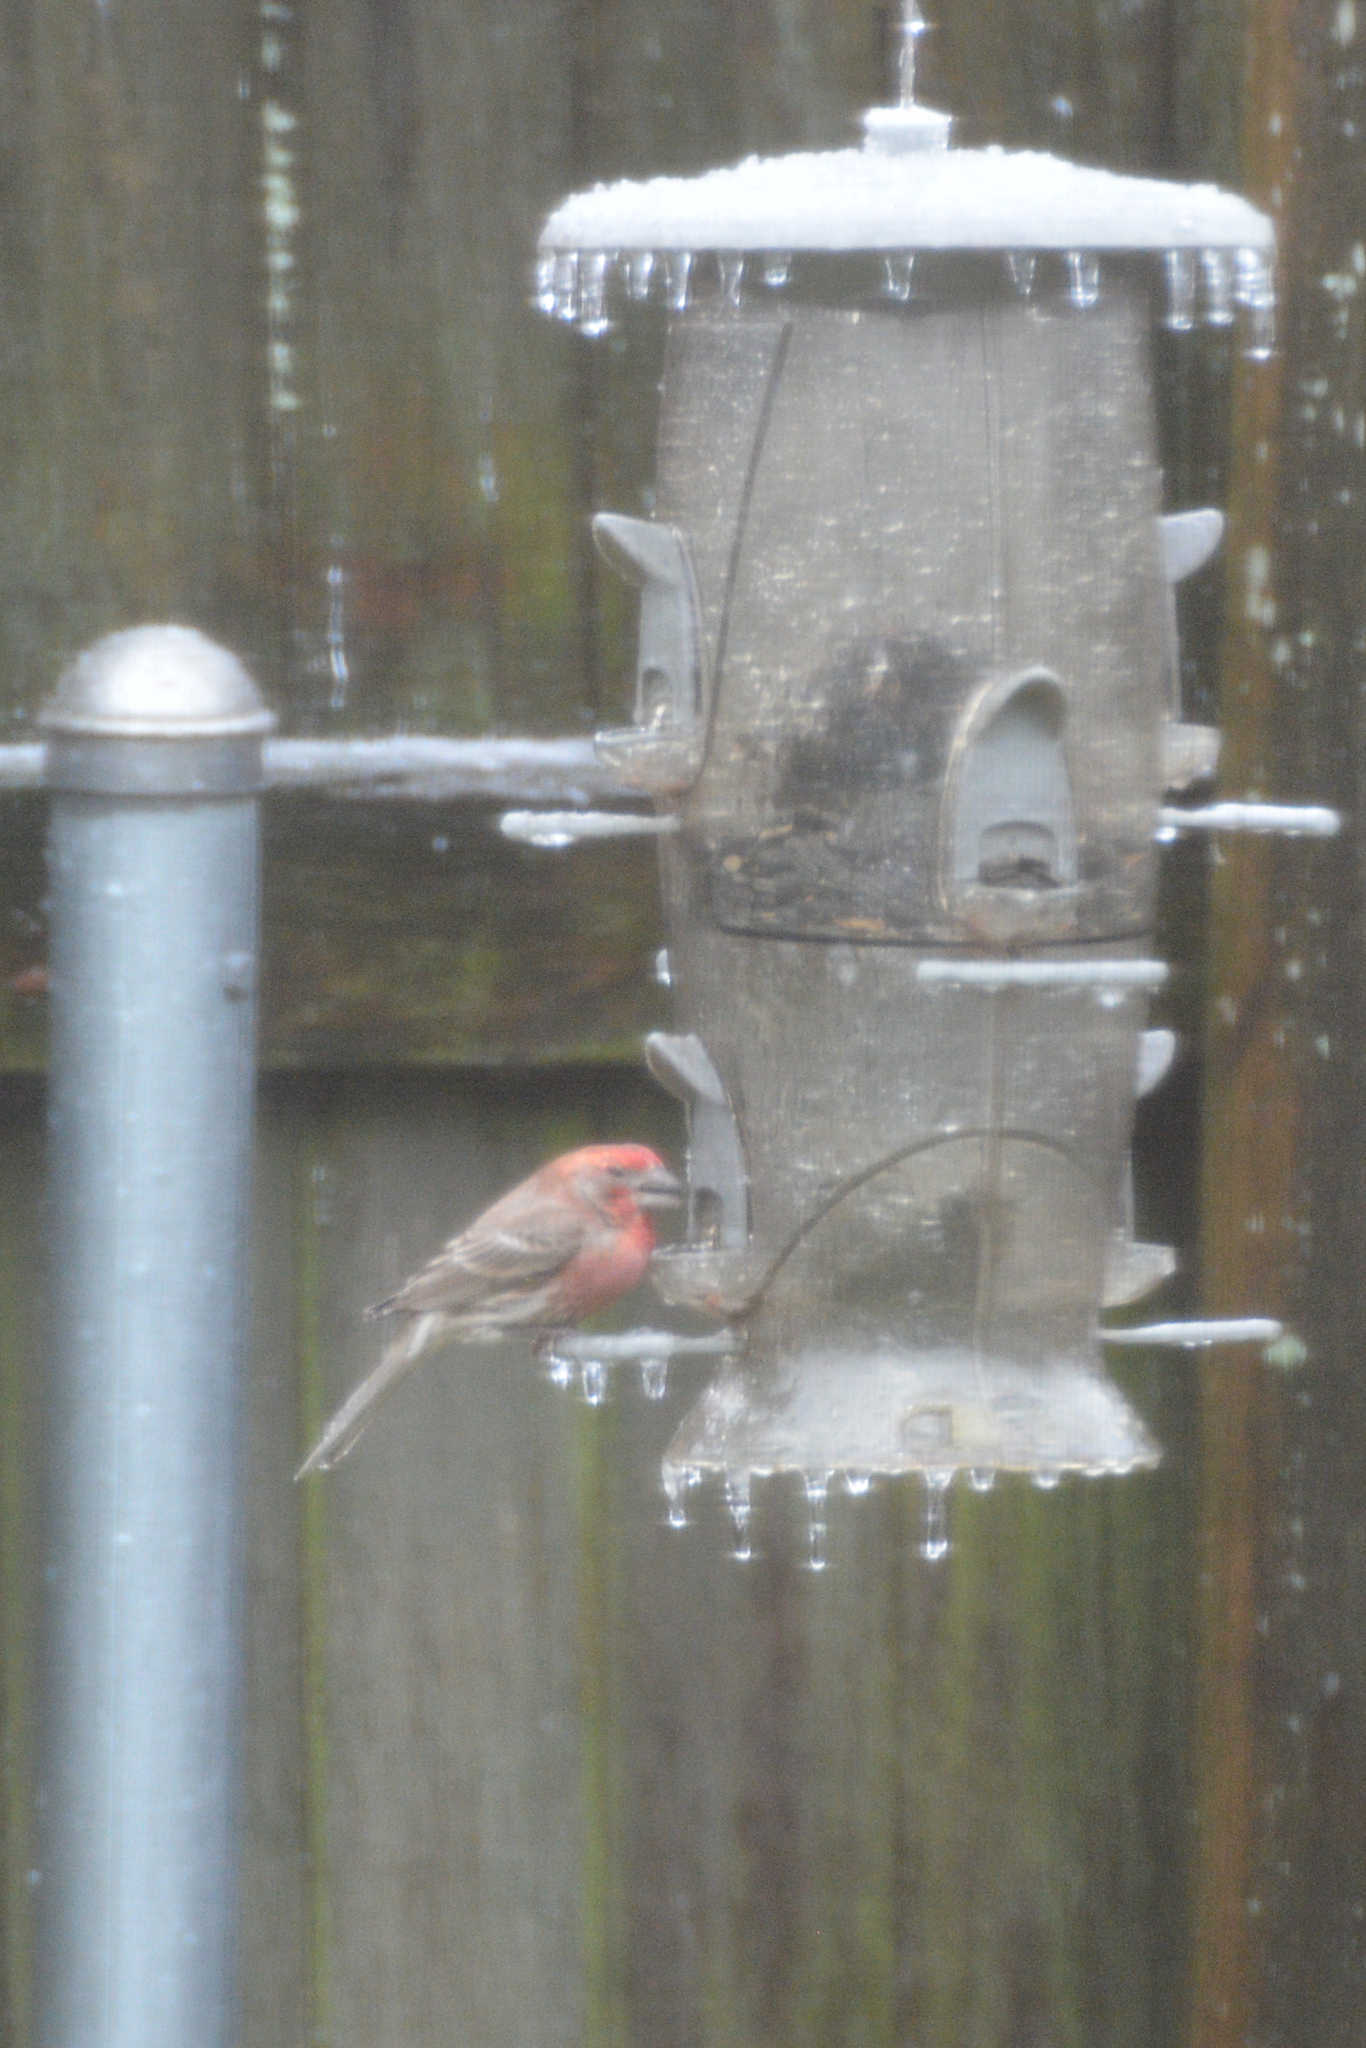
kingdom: Animalia
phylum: Chordata
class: Aves
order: Passeriformes
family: Fringillidae
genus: Haemorhous
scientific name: Haemorhous mexicanus
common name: House finch
